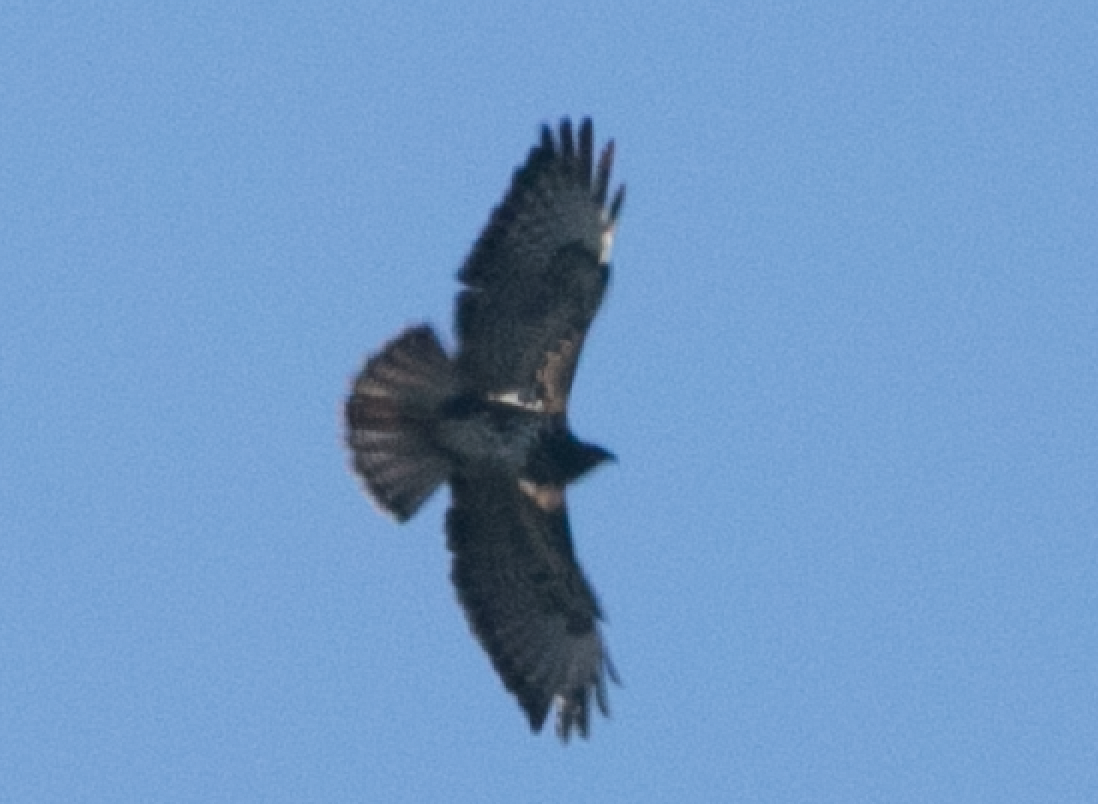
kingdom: Animalia
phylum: Chordata
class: Aves
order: Accipitriformes
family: Accipitridae
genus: Buteo
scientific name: Buteo buteo
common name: Common buzzard
